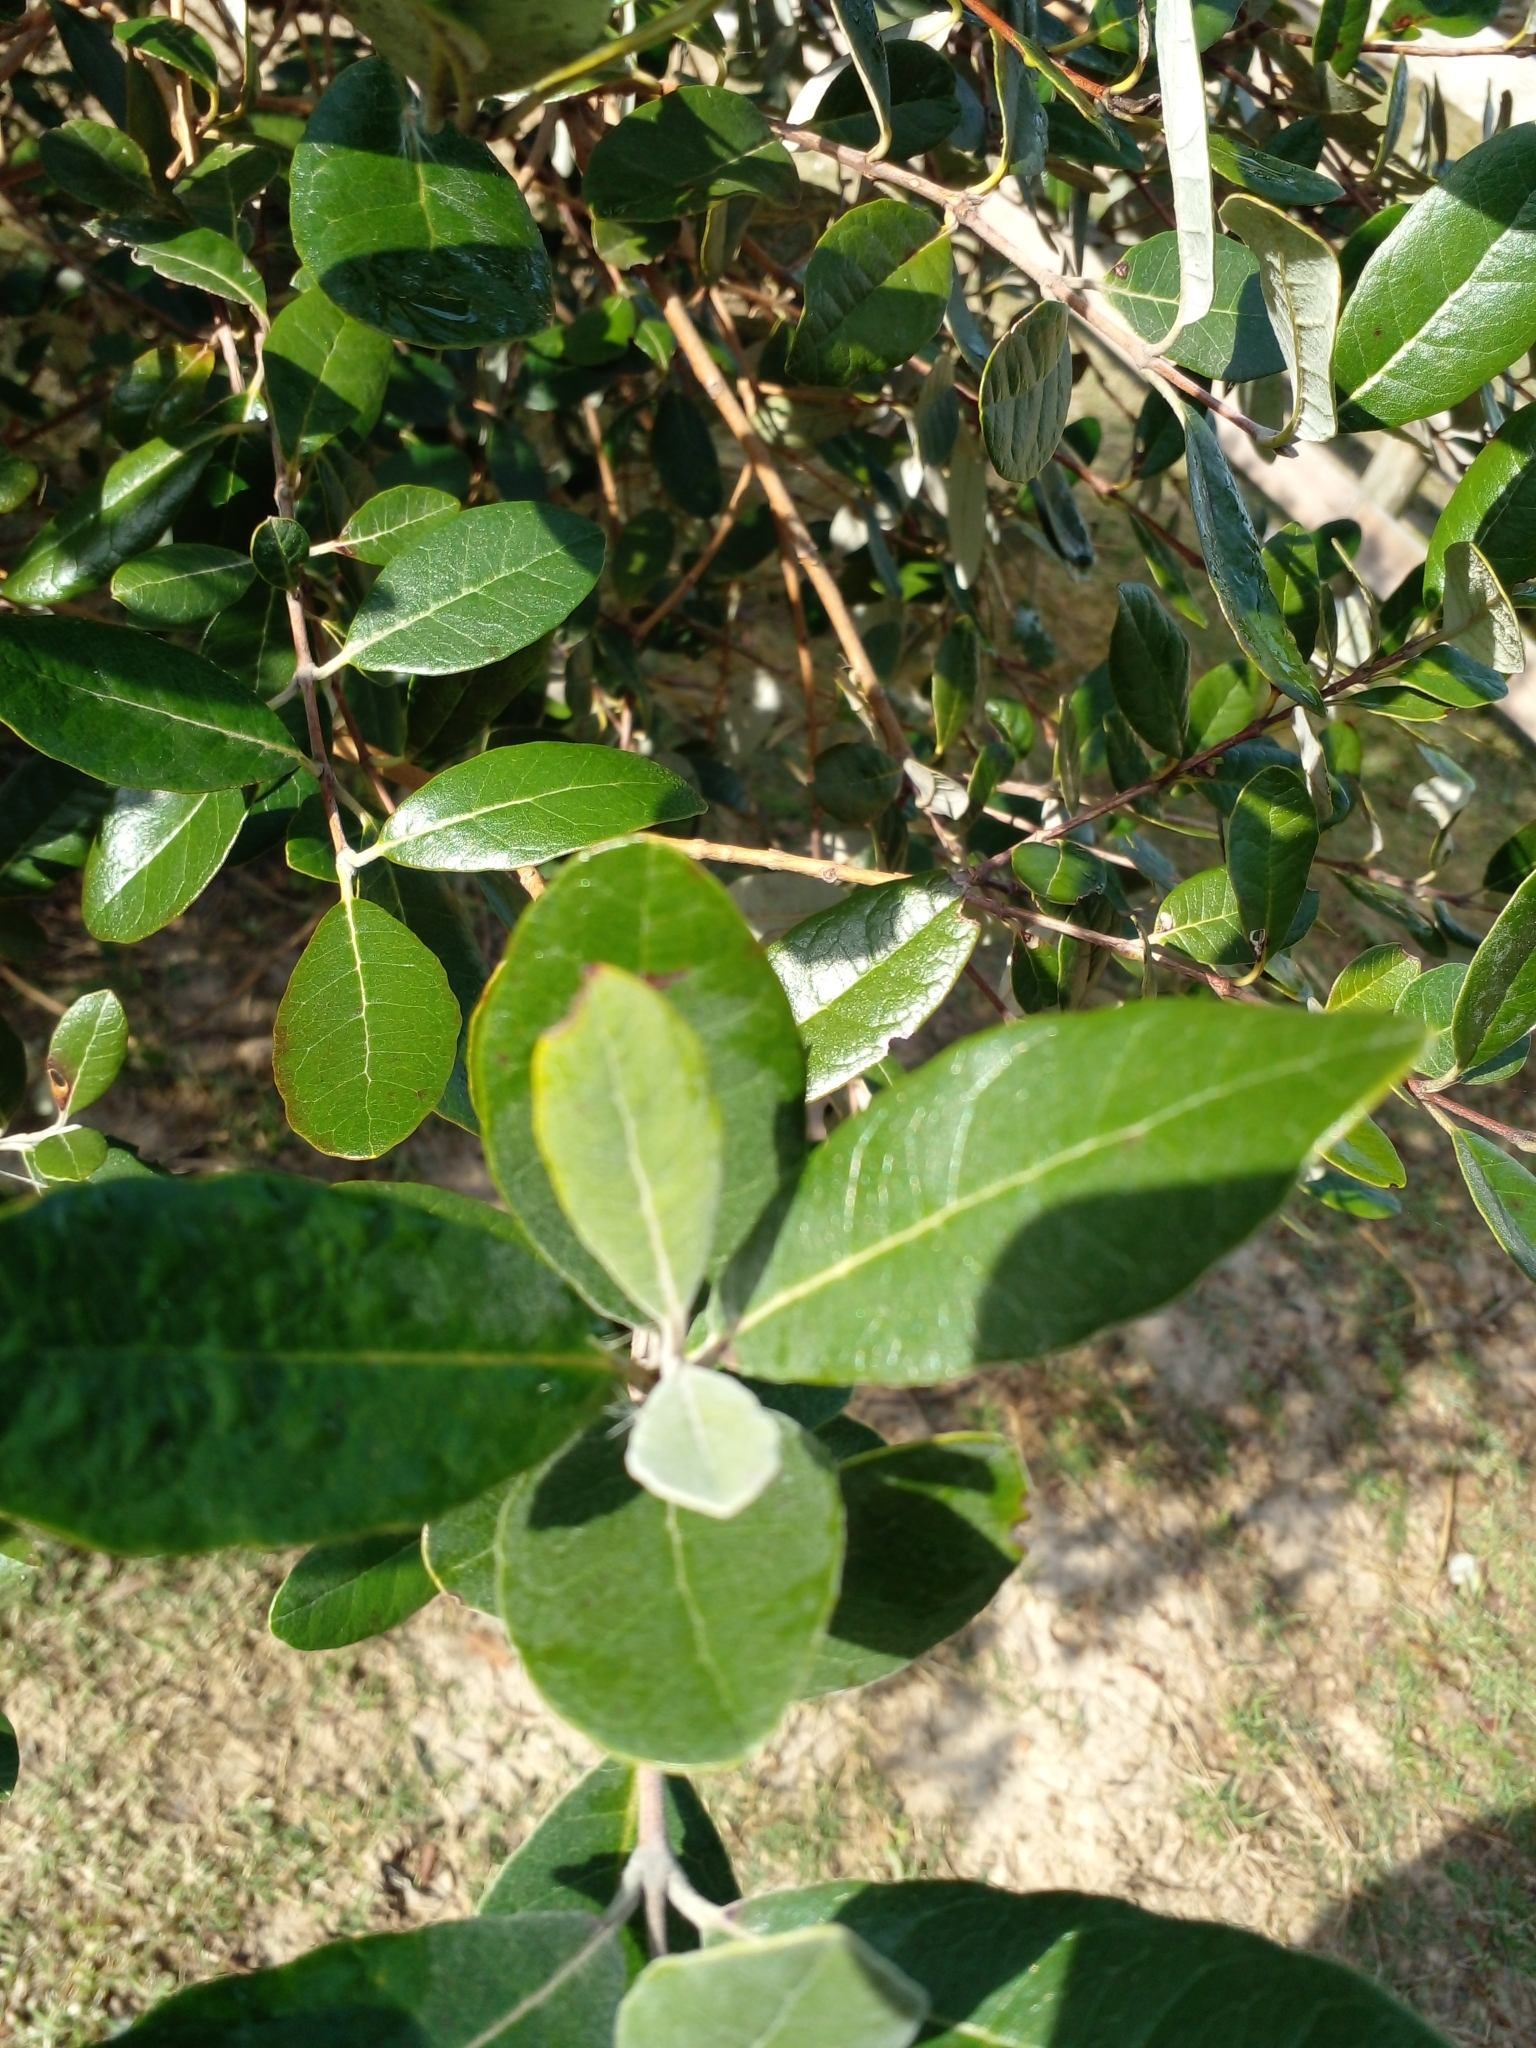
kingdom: Plantae
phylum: Tracheophyta
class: Magnoliopsida
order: Myrtales
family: Myrtaceae
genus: Feijoa
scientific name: Feijoa sellowiana
